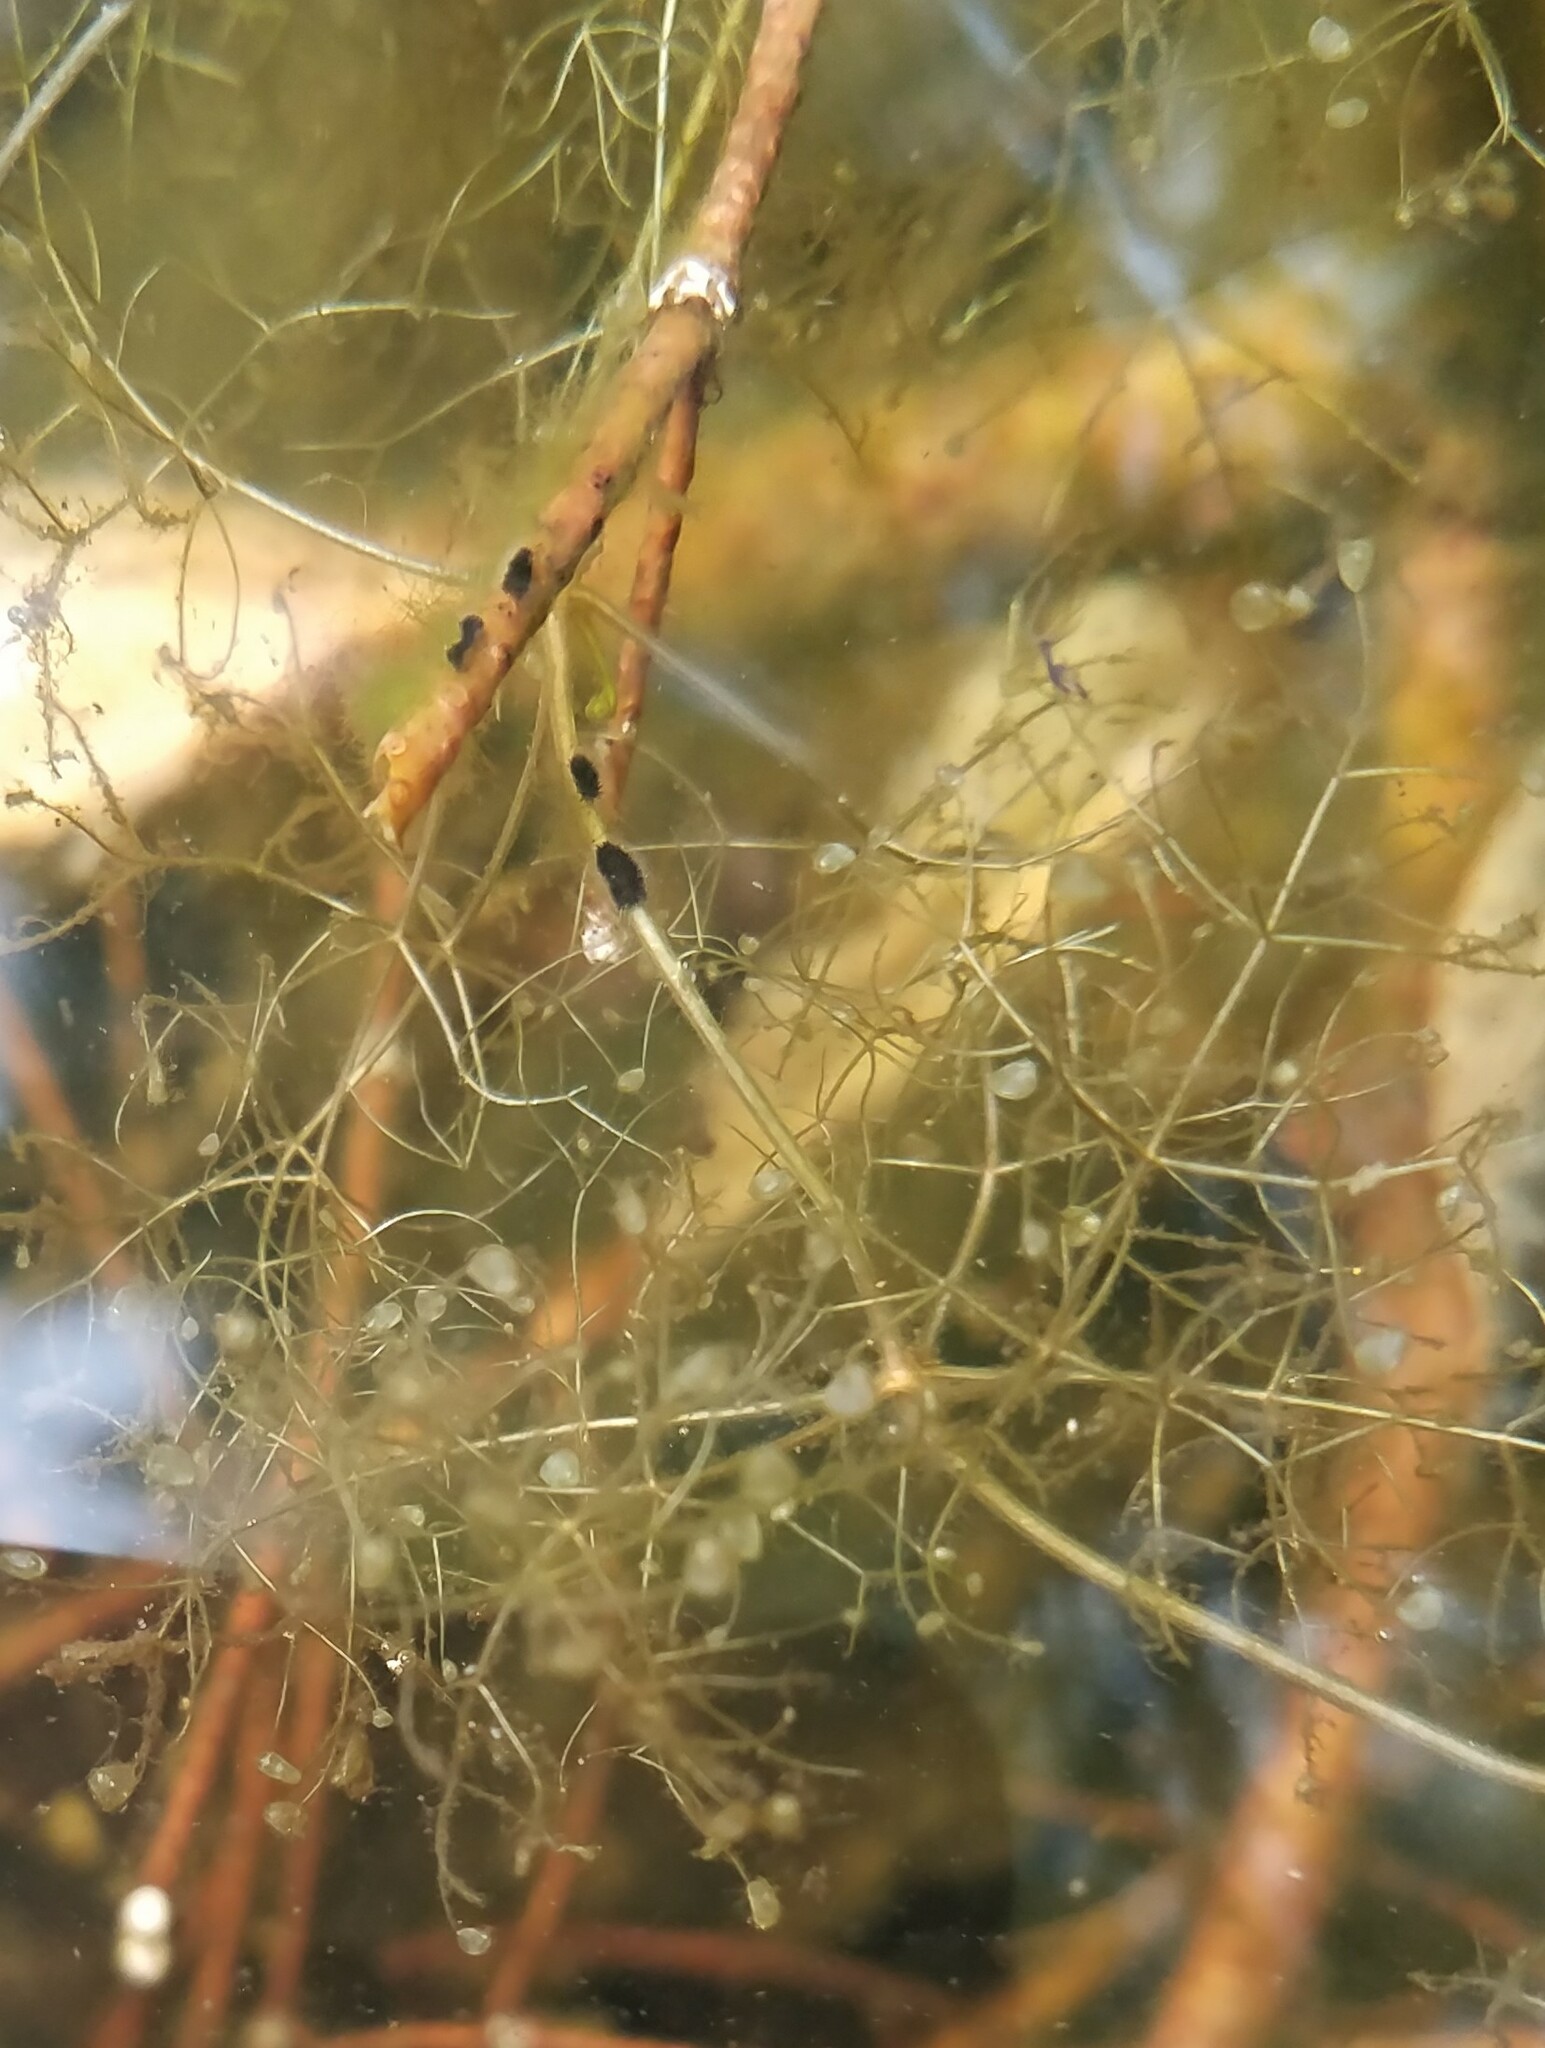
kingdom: Plantae
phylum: Tracheophyta
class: Magnoliopsida
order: Lamiales
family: Lentibulariaceae
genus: Utricularia
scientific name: Utricularia purpurea
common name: Eastern purple bladderwort
